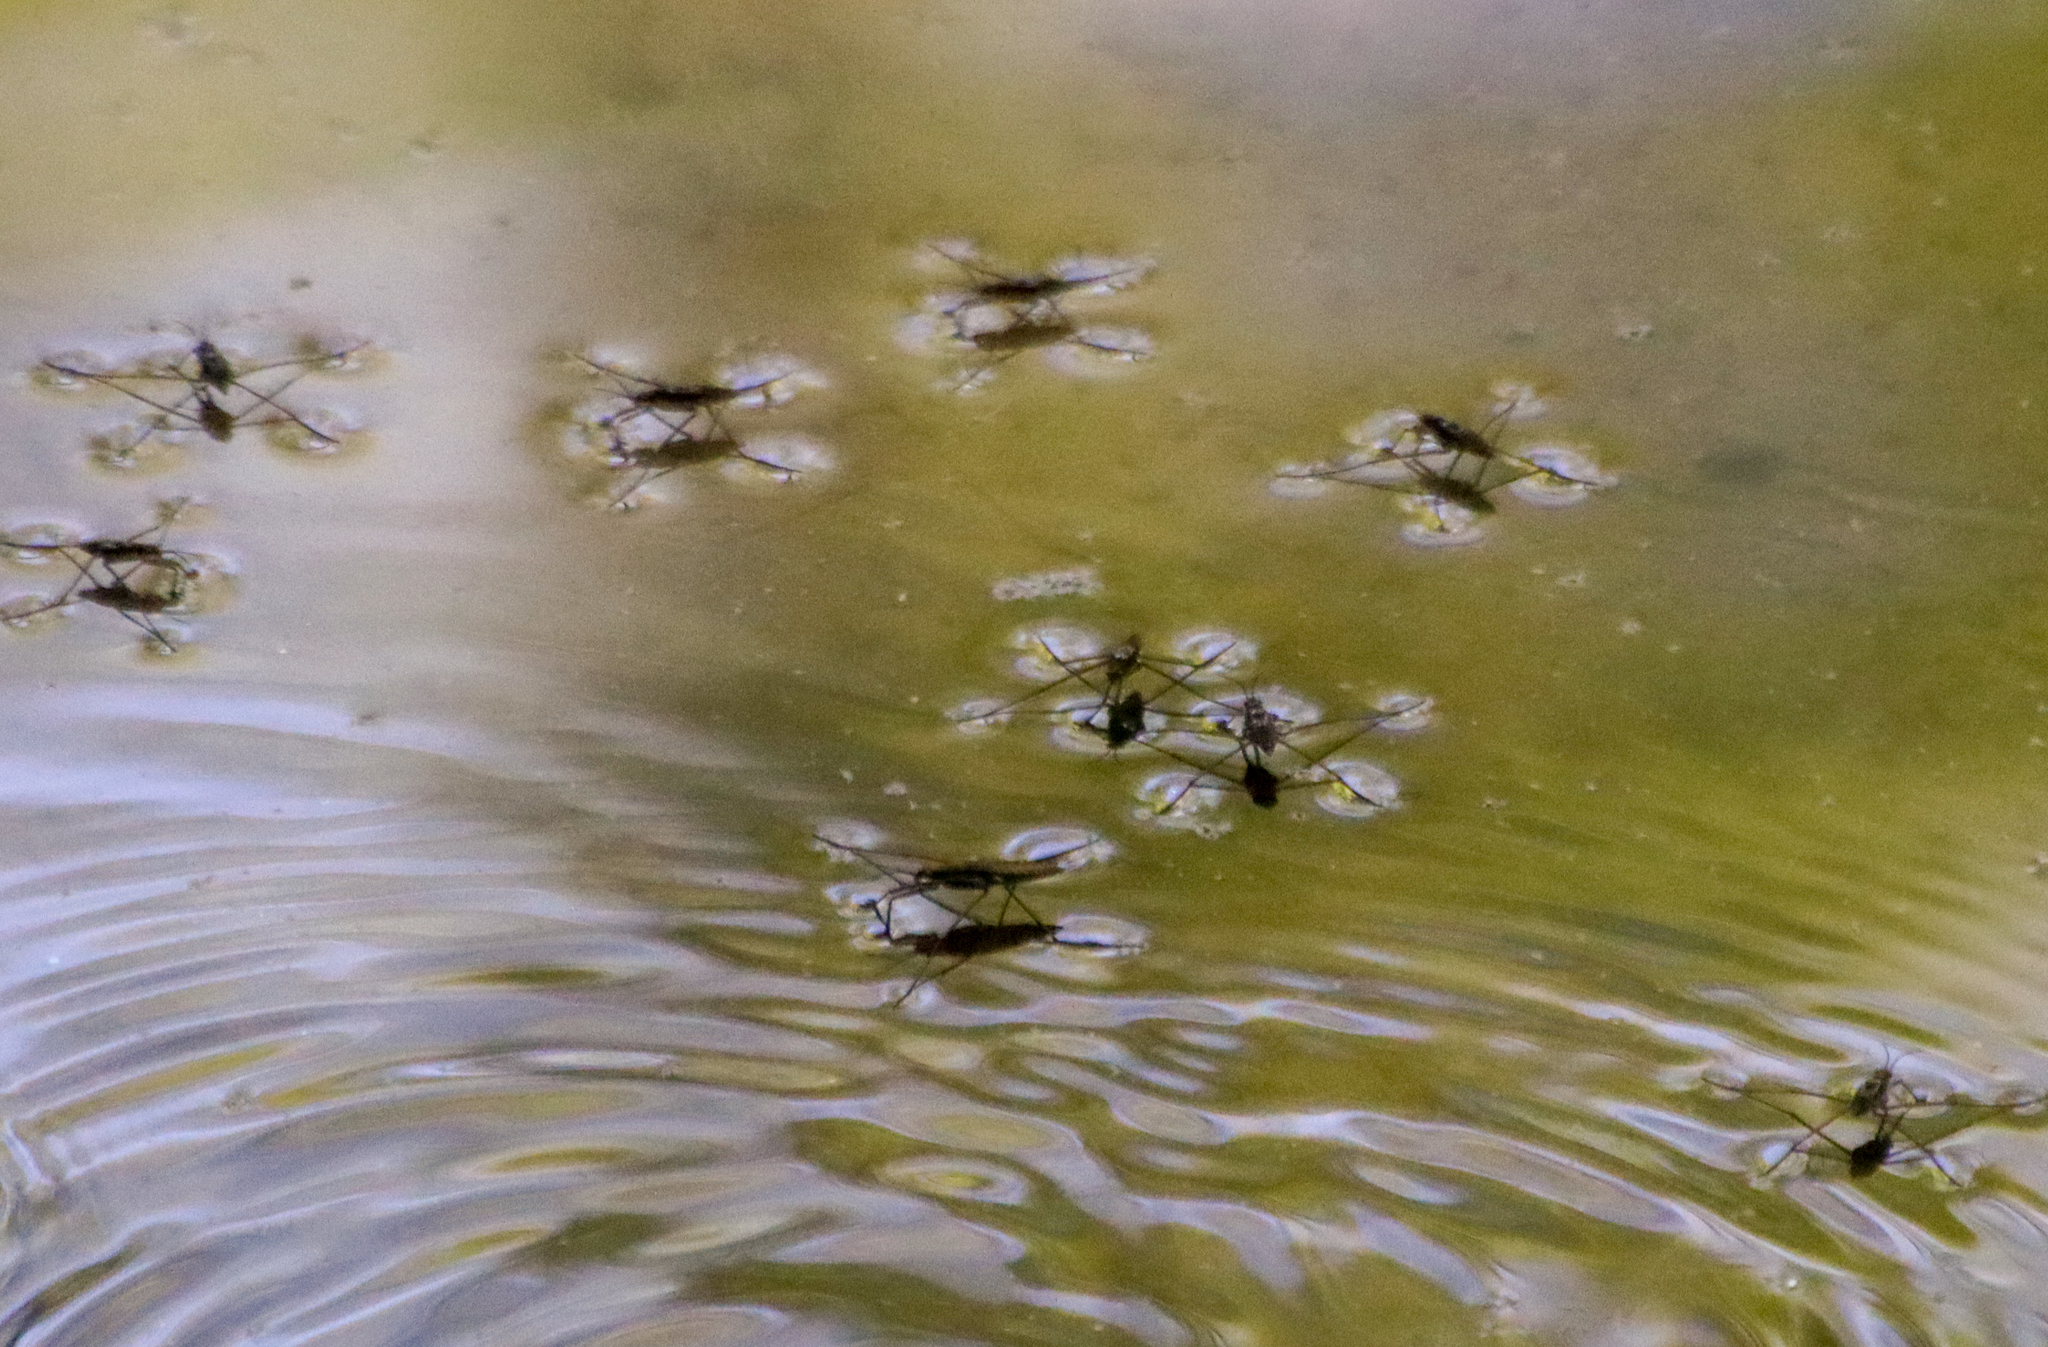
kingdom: Animalia
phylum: Arthropoda
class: Insecta
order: Hemiptera
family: Gerridae
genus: Aquarius
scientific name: Aquarius remigis
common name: Common water strider
